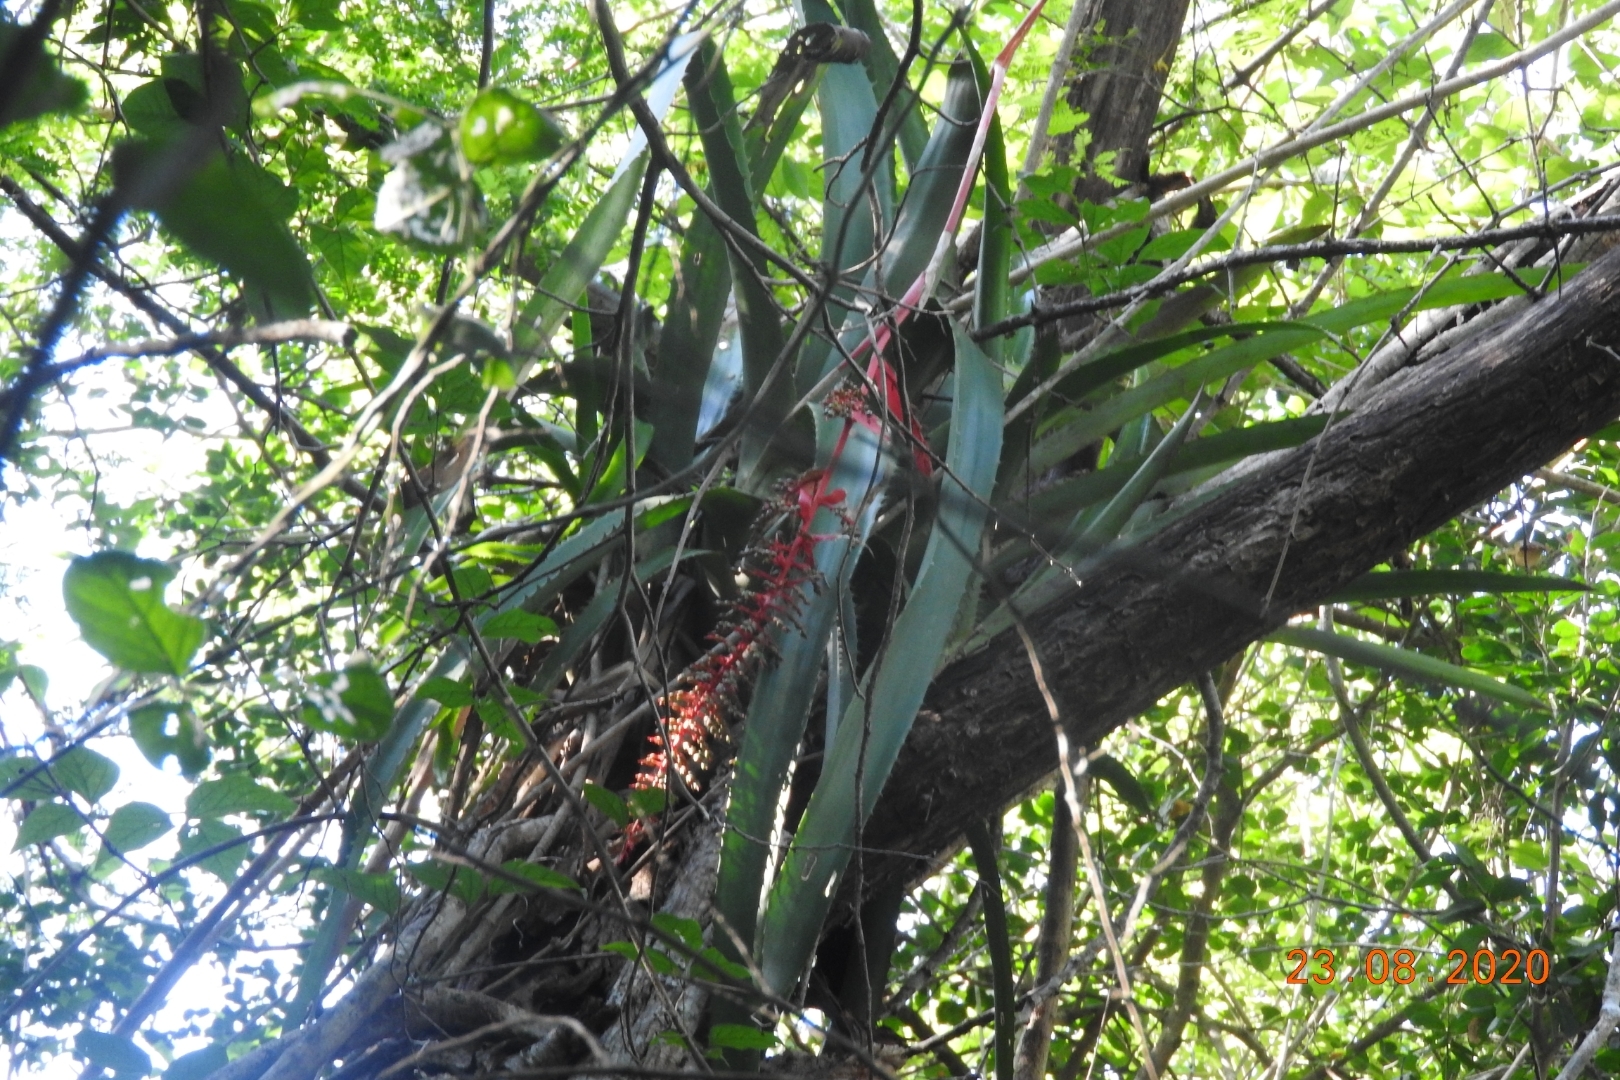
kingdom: Plantae
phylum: Tracheophyta
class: Liliopsida
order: Poales
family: Bromeliaceae
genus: Aechmea
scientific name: Aechmea bracteata
